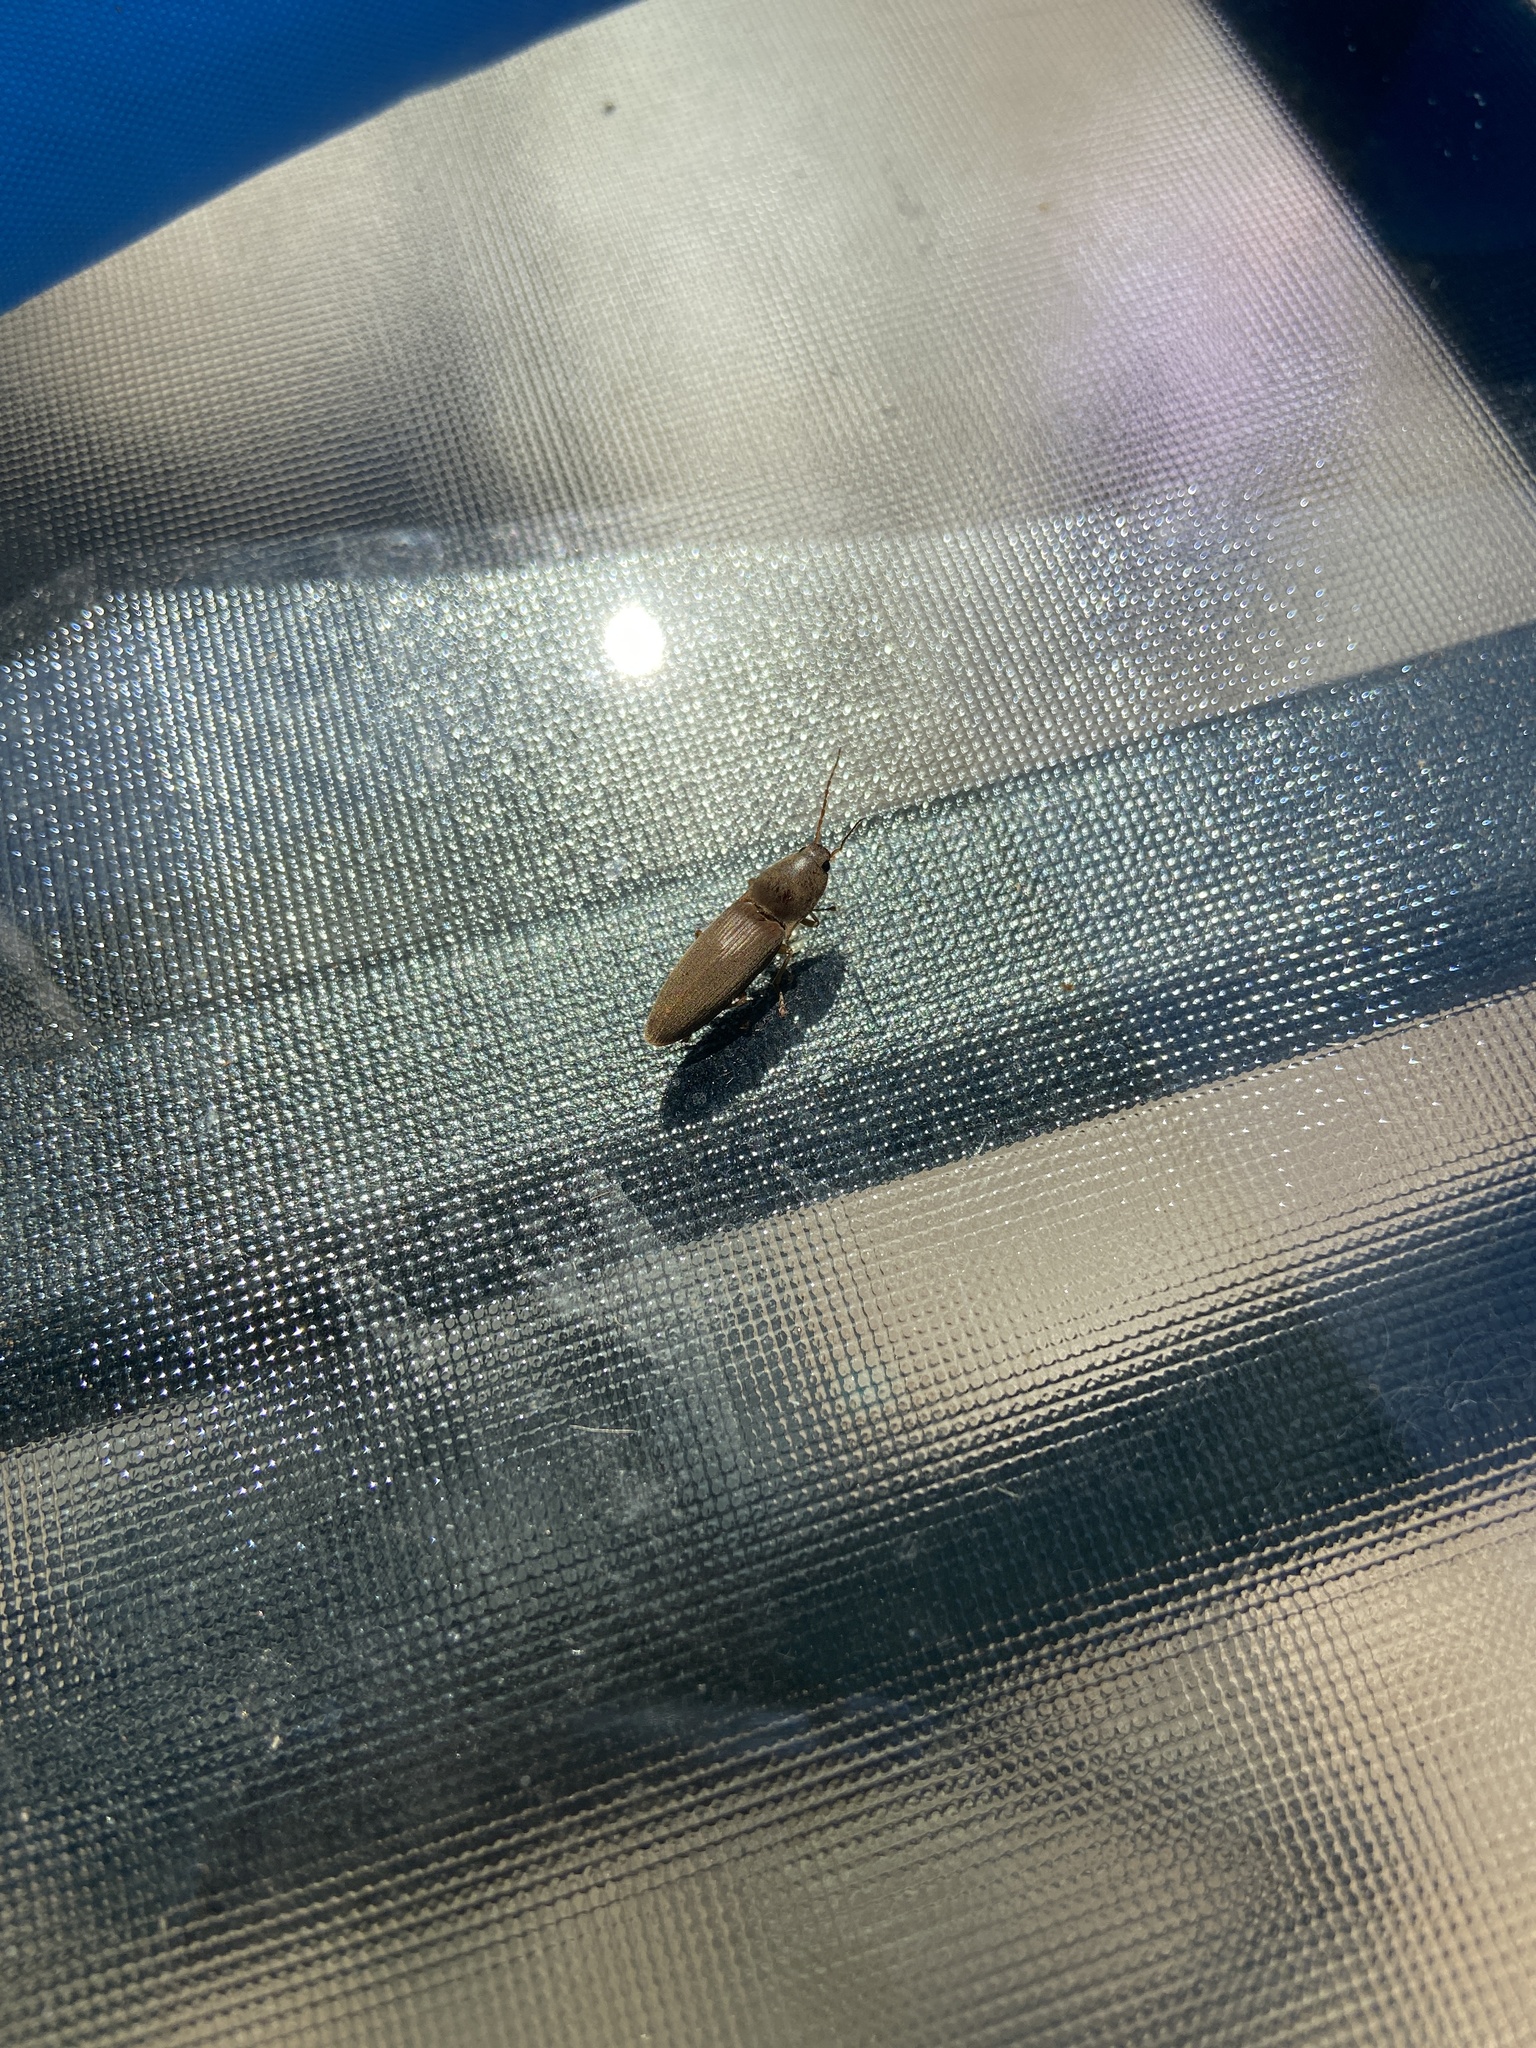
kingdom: Animalia
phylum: Arthropoda
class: Insecta
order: Coleoptera
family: Elateridae
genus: Monocrepidius
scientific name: Monocrepidius lividus
